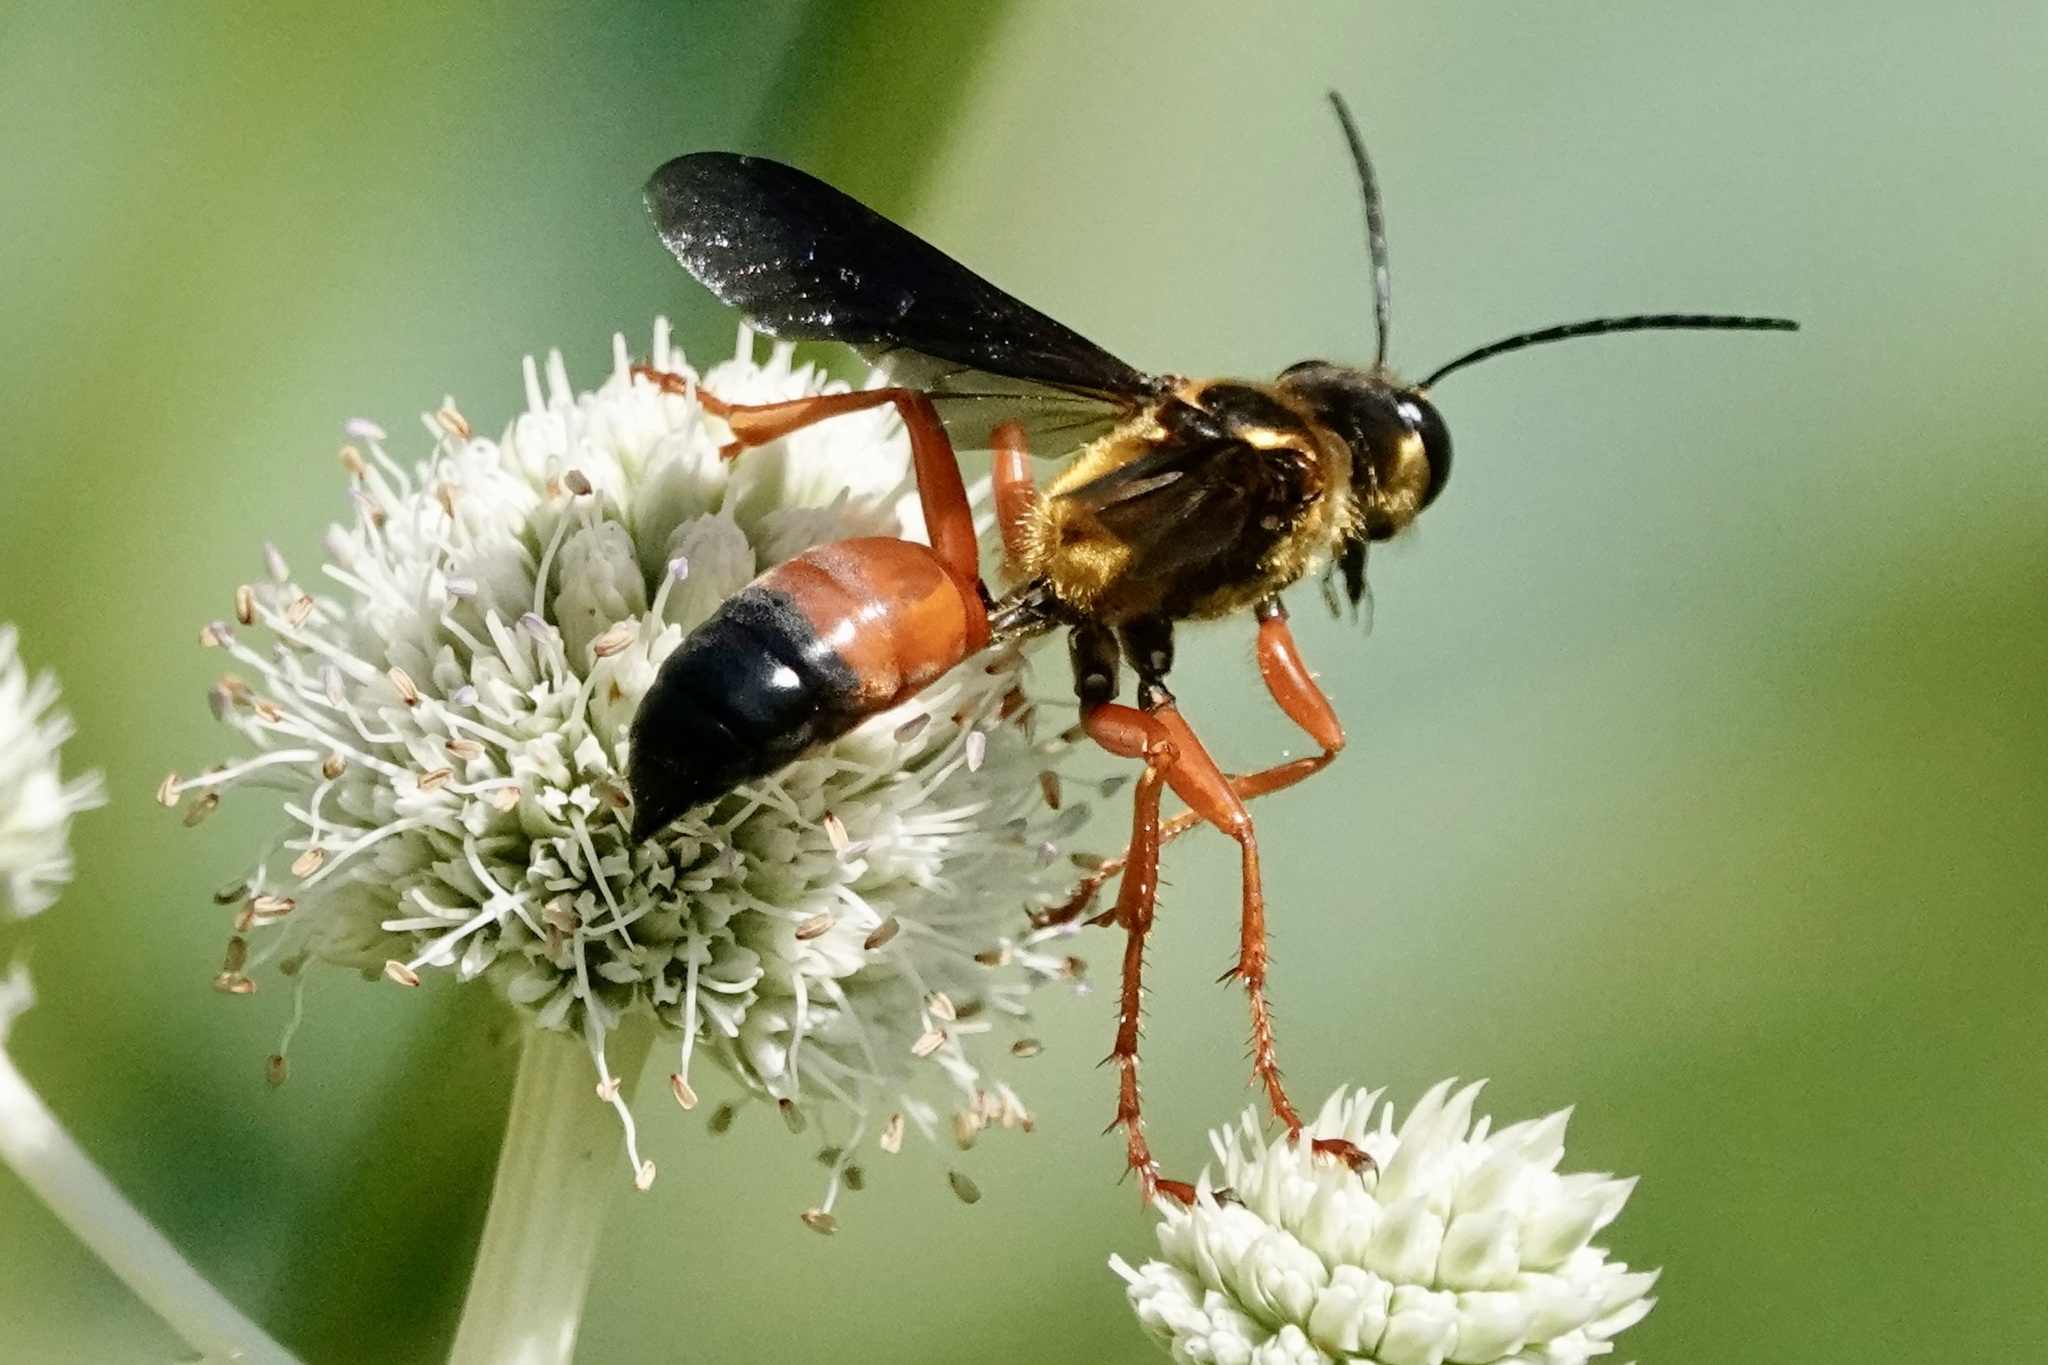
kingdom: Animalia
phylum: Arthropoda
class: Insecta
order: Hymenoptera
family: Sphecidae
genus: Sphex
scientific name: Sphex ichneumoneus
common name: Great golden digger wasp
